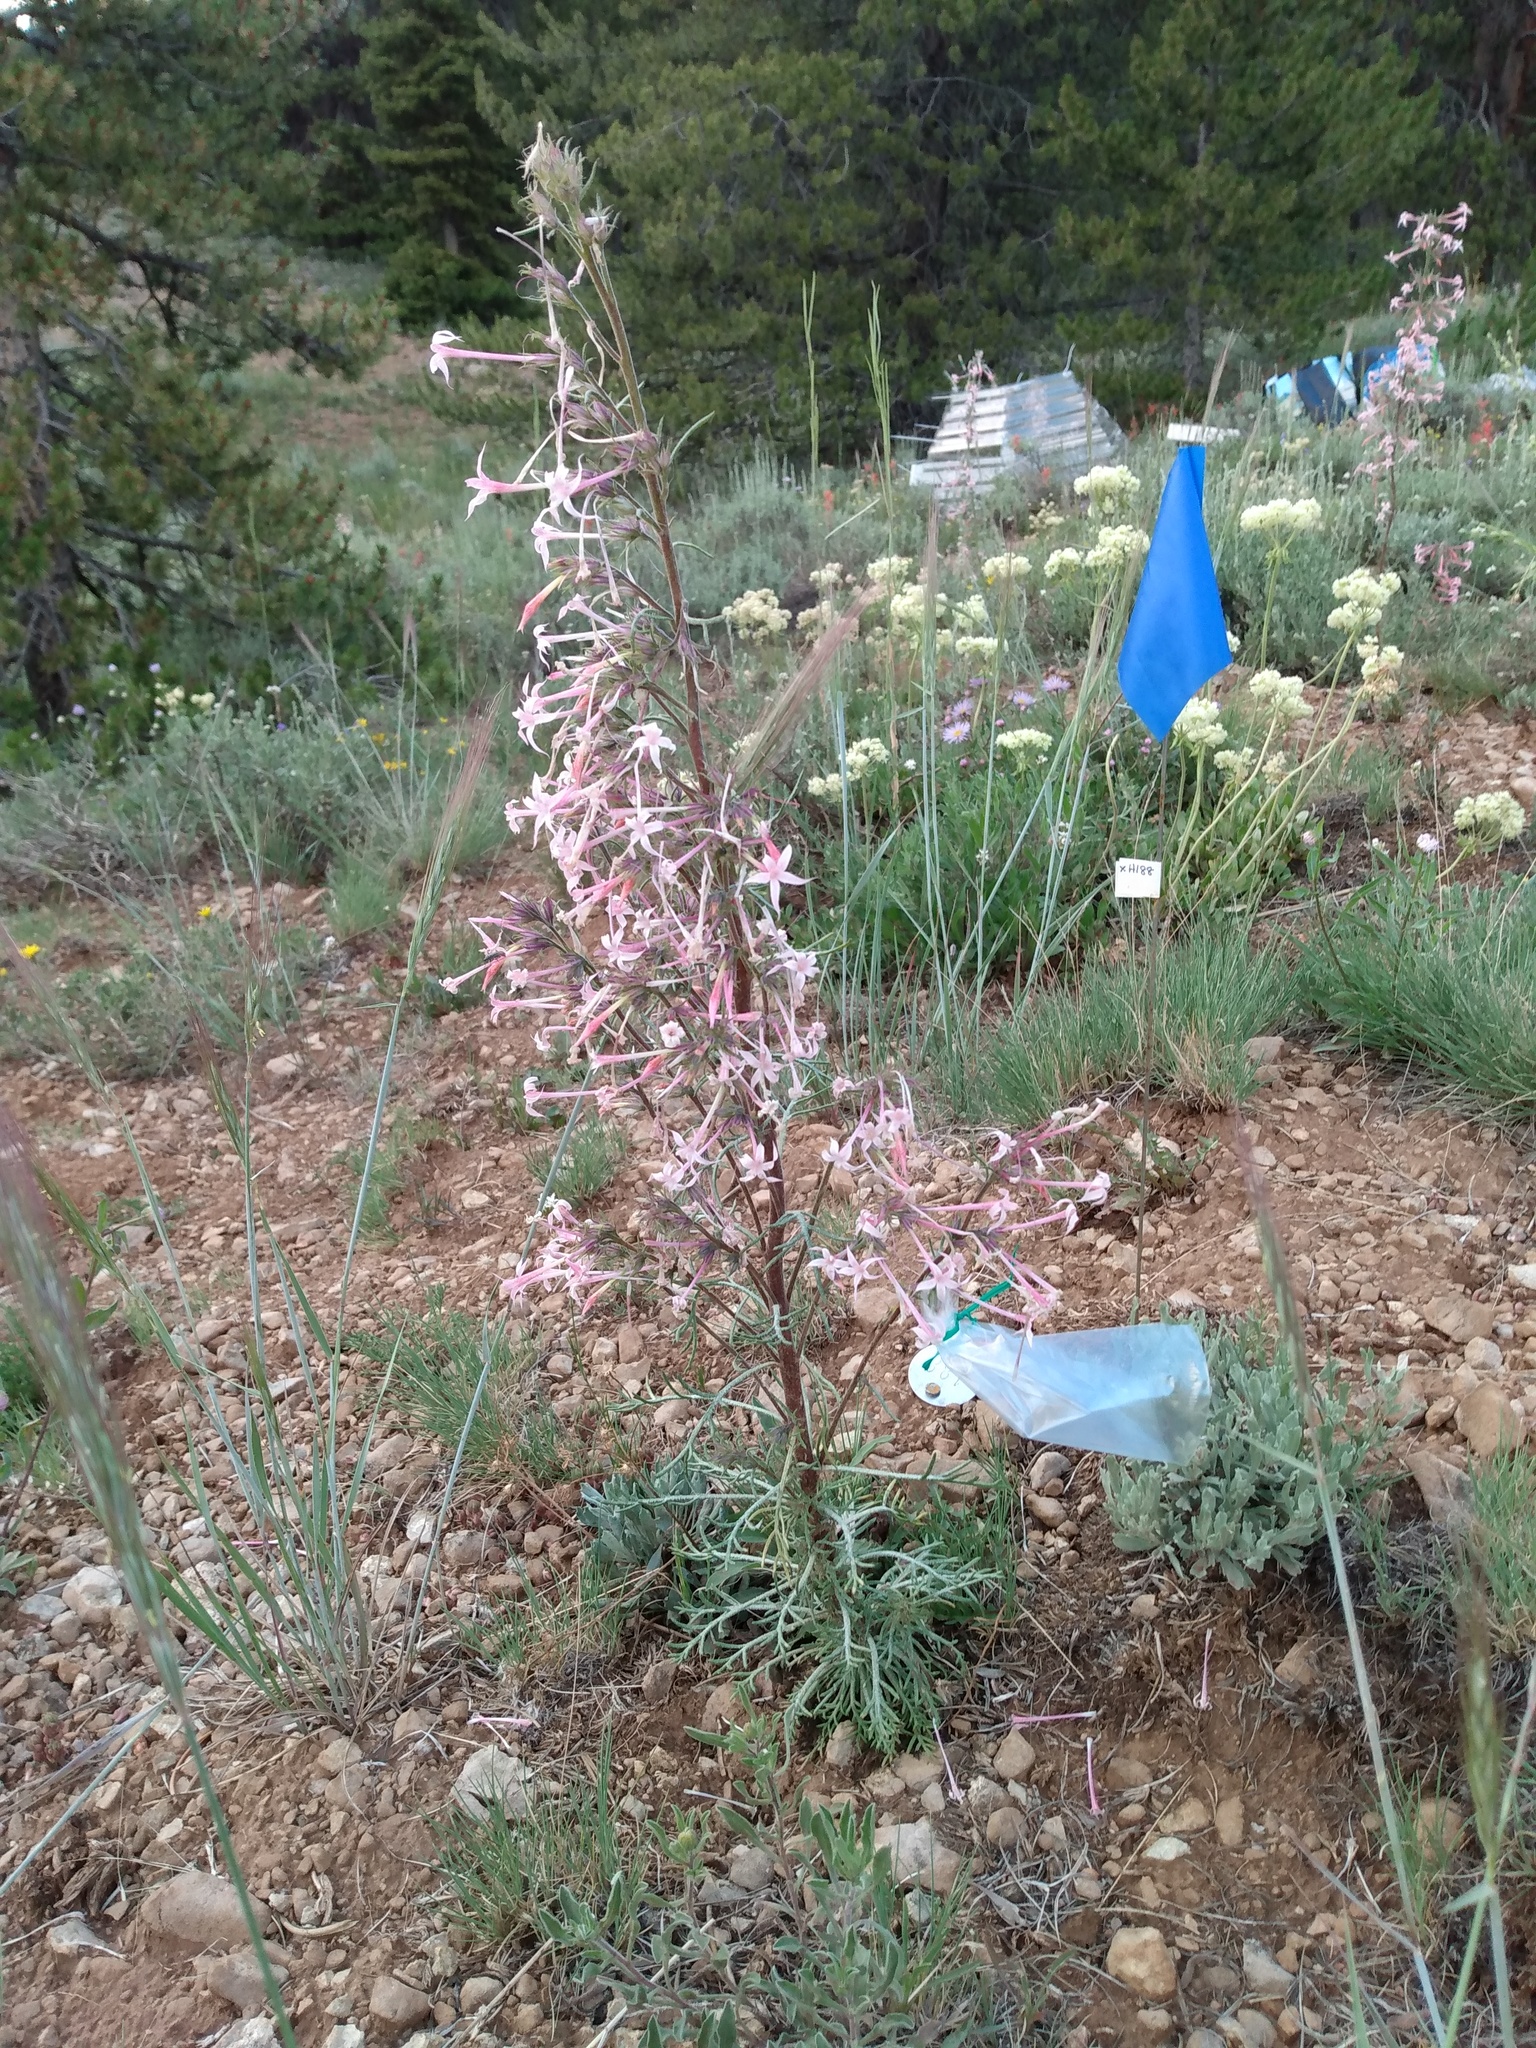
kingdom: Plantae
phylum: Tracheophyta
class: Magnoliopsida
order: Ericales
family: Polemoniaceae
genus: Ipomopsis
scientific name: Ipomopsis tenuituba
